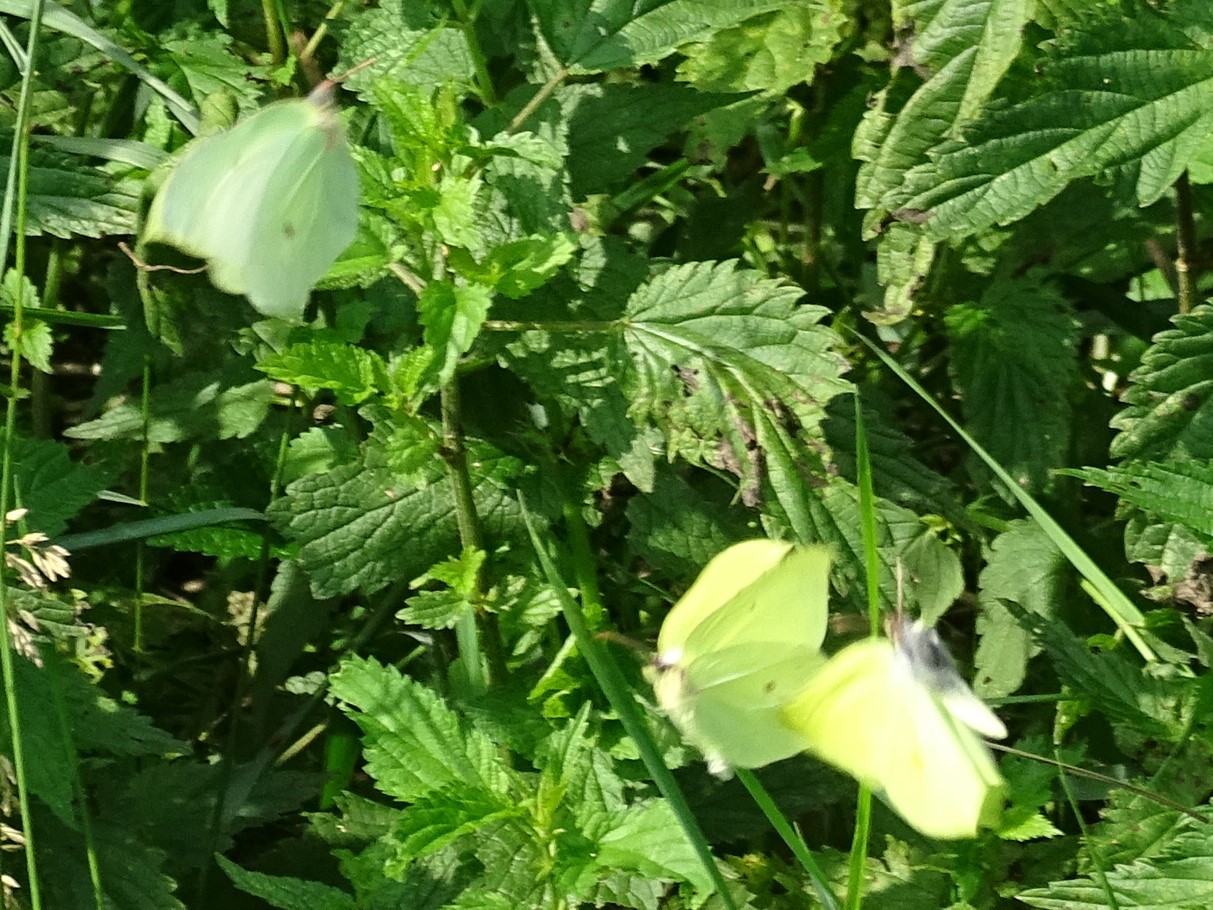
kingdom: Animalia
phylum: Arthropoda
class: Insecta
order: Lepidoptera
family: Pieridae
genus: Gonepteryx
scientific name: Gonepteryx rhamni
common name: Brimstone
